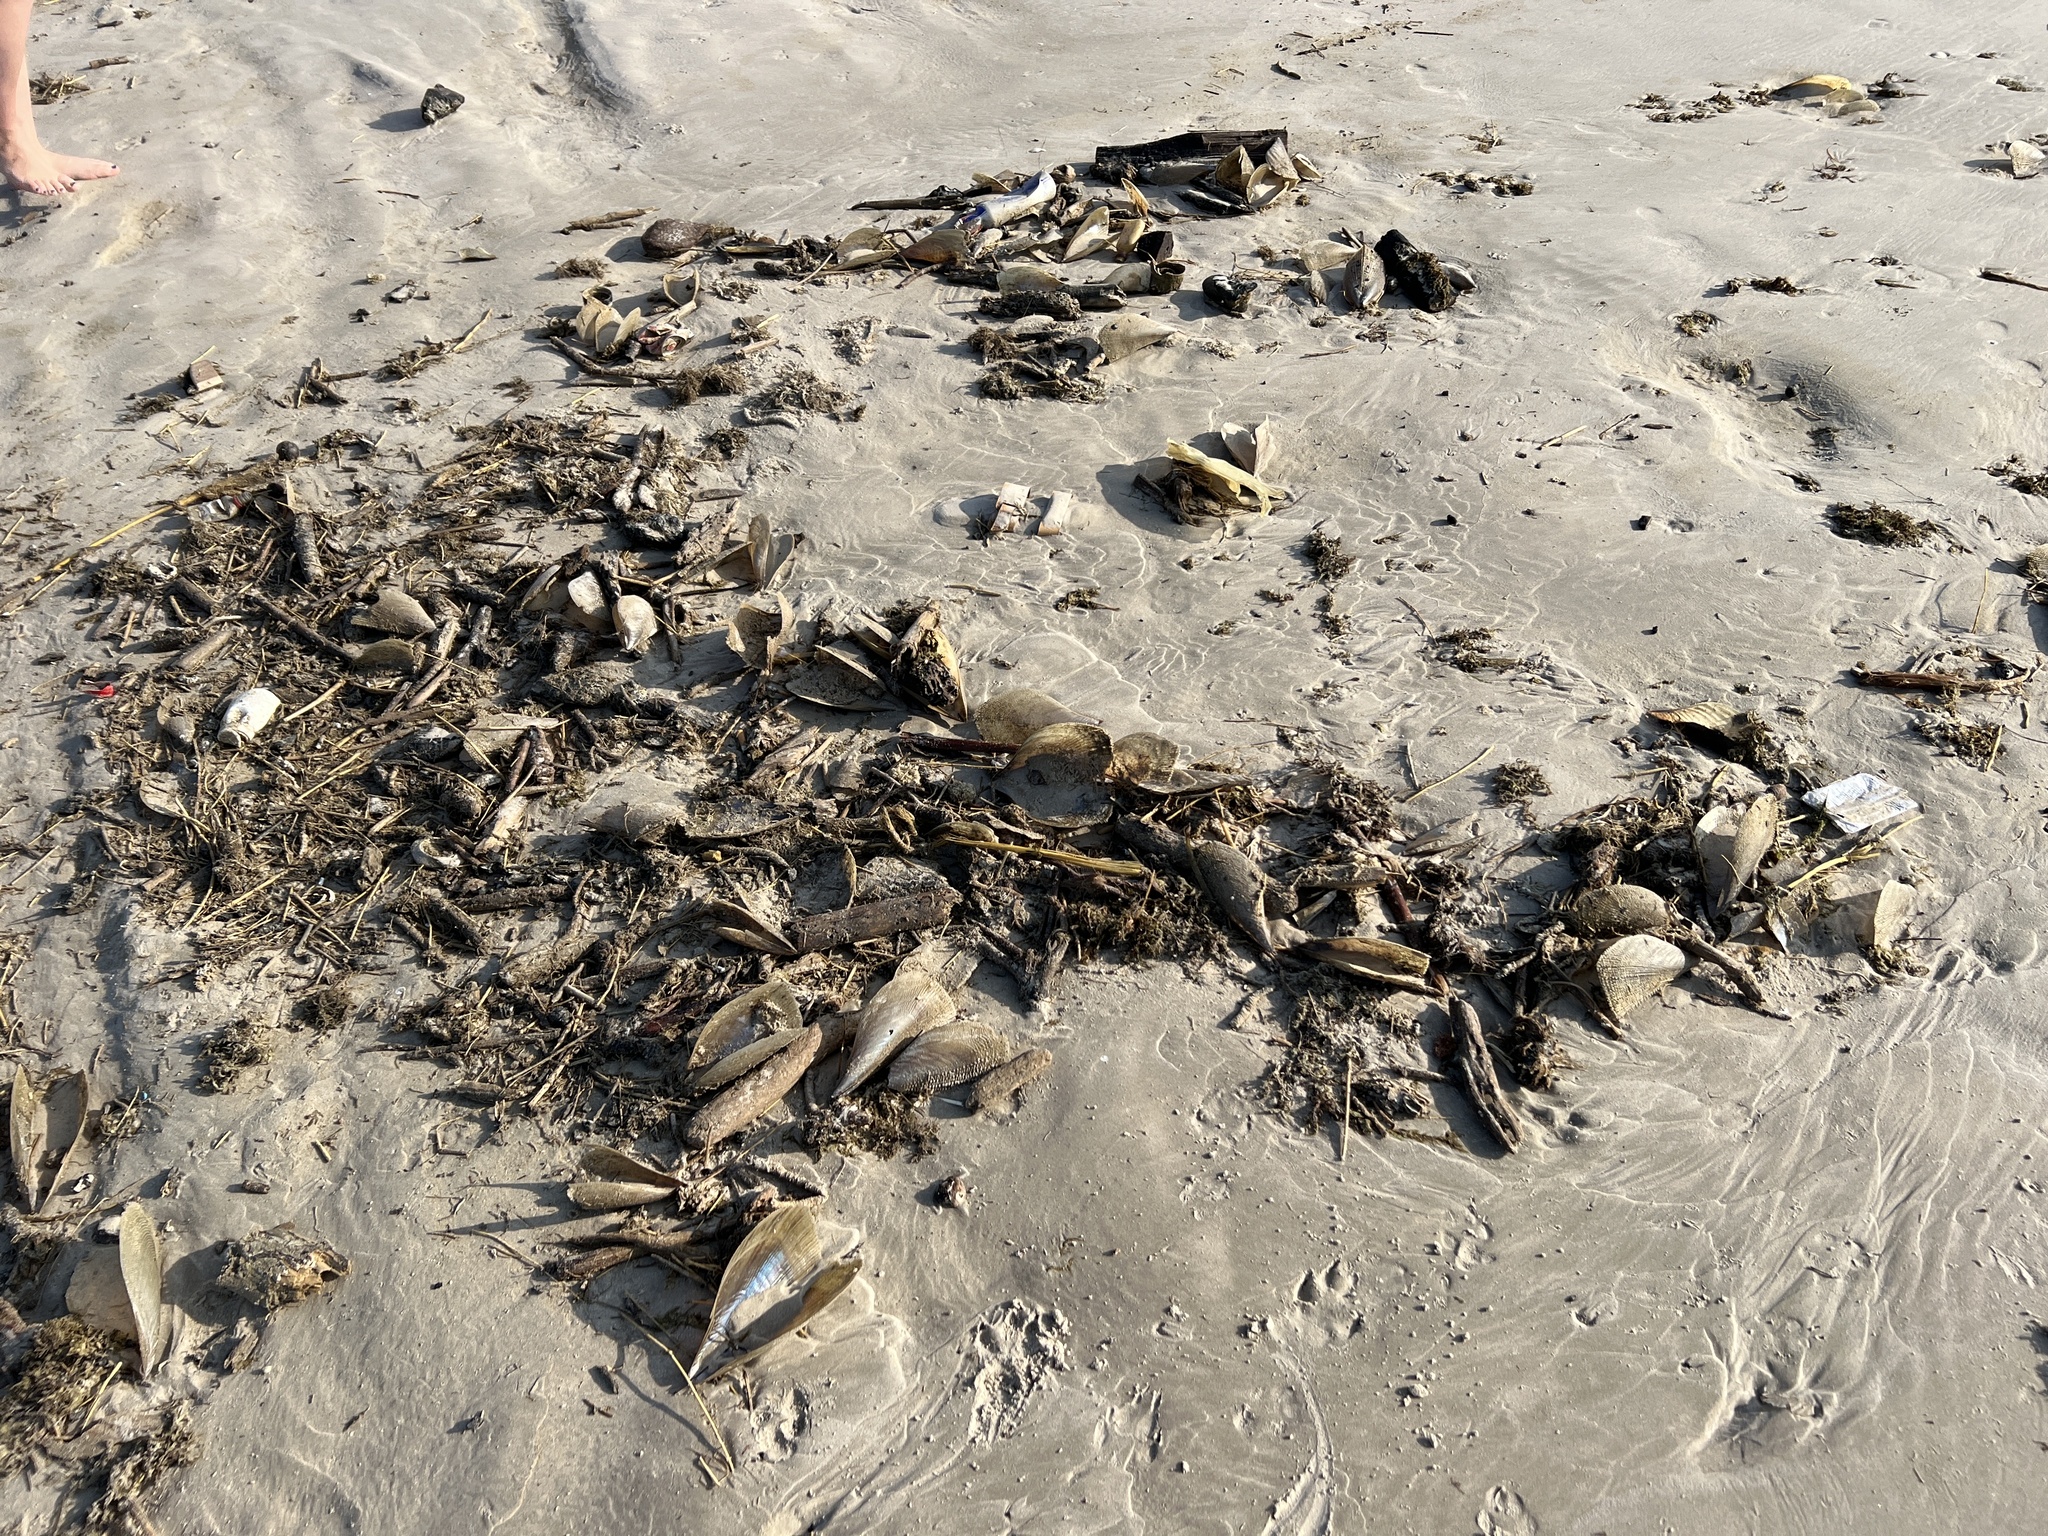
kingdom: Animalia
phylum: Mollusca
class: Bivalvia
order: Ostreida
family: Pinnidae
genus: Atrina
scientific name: Atrina serrata
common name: Saw-toothed penshell
